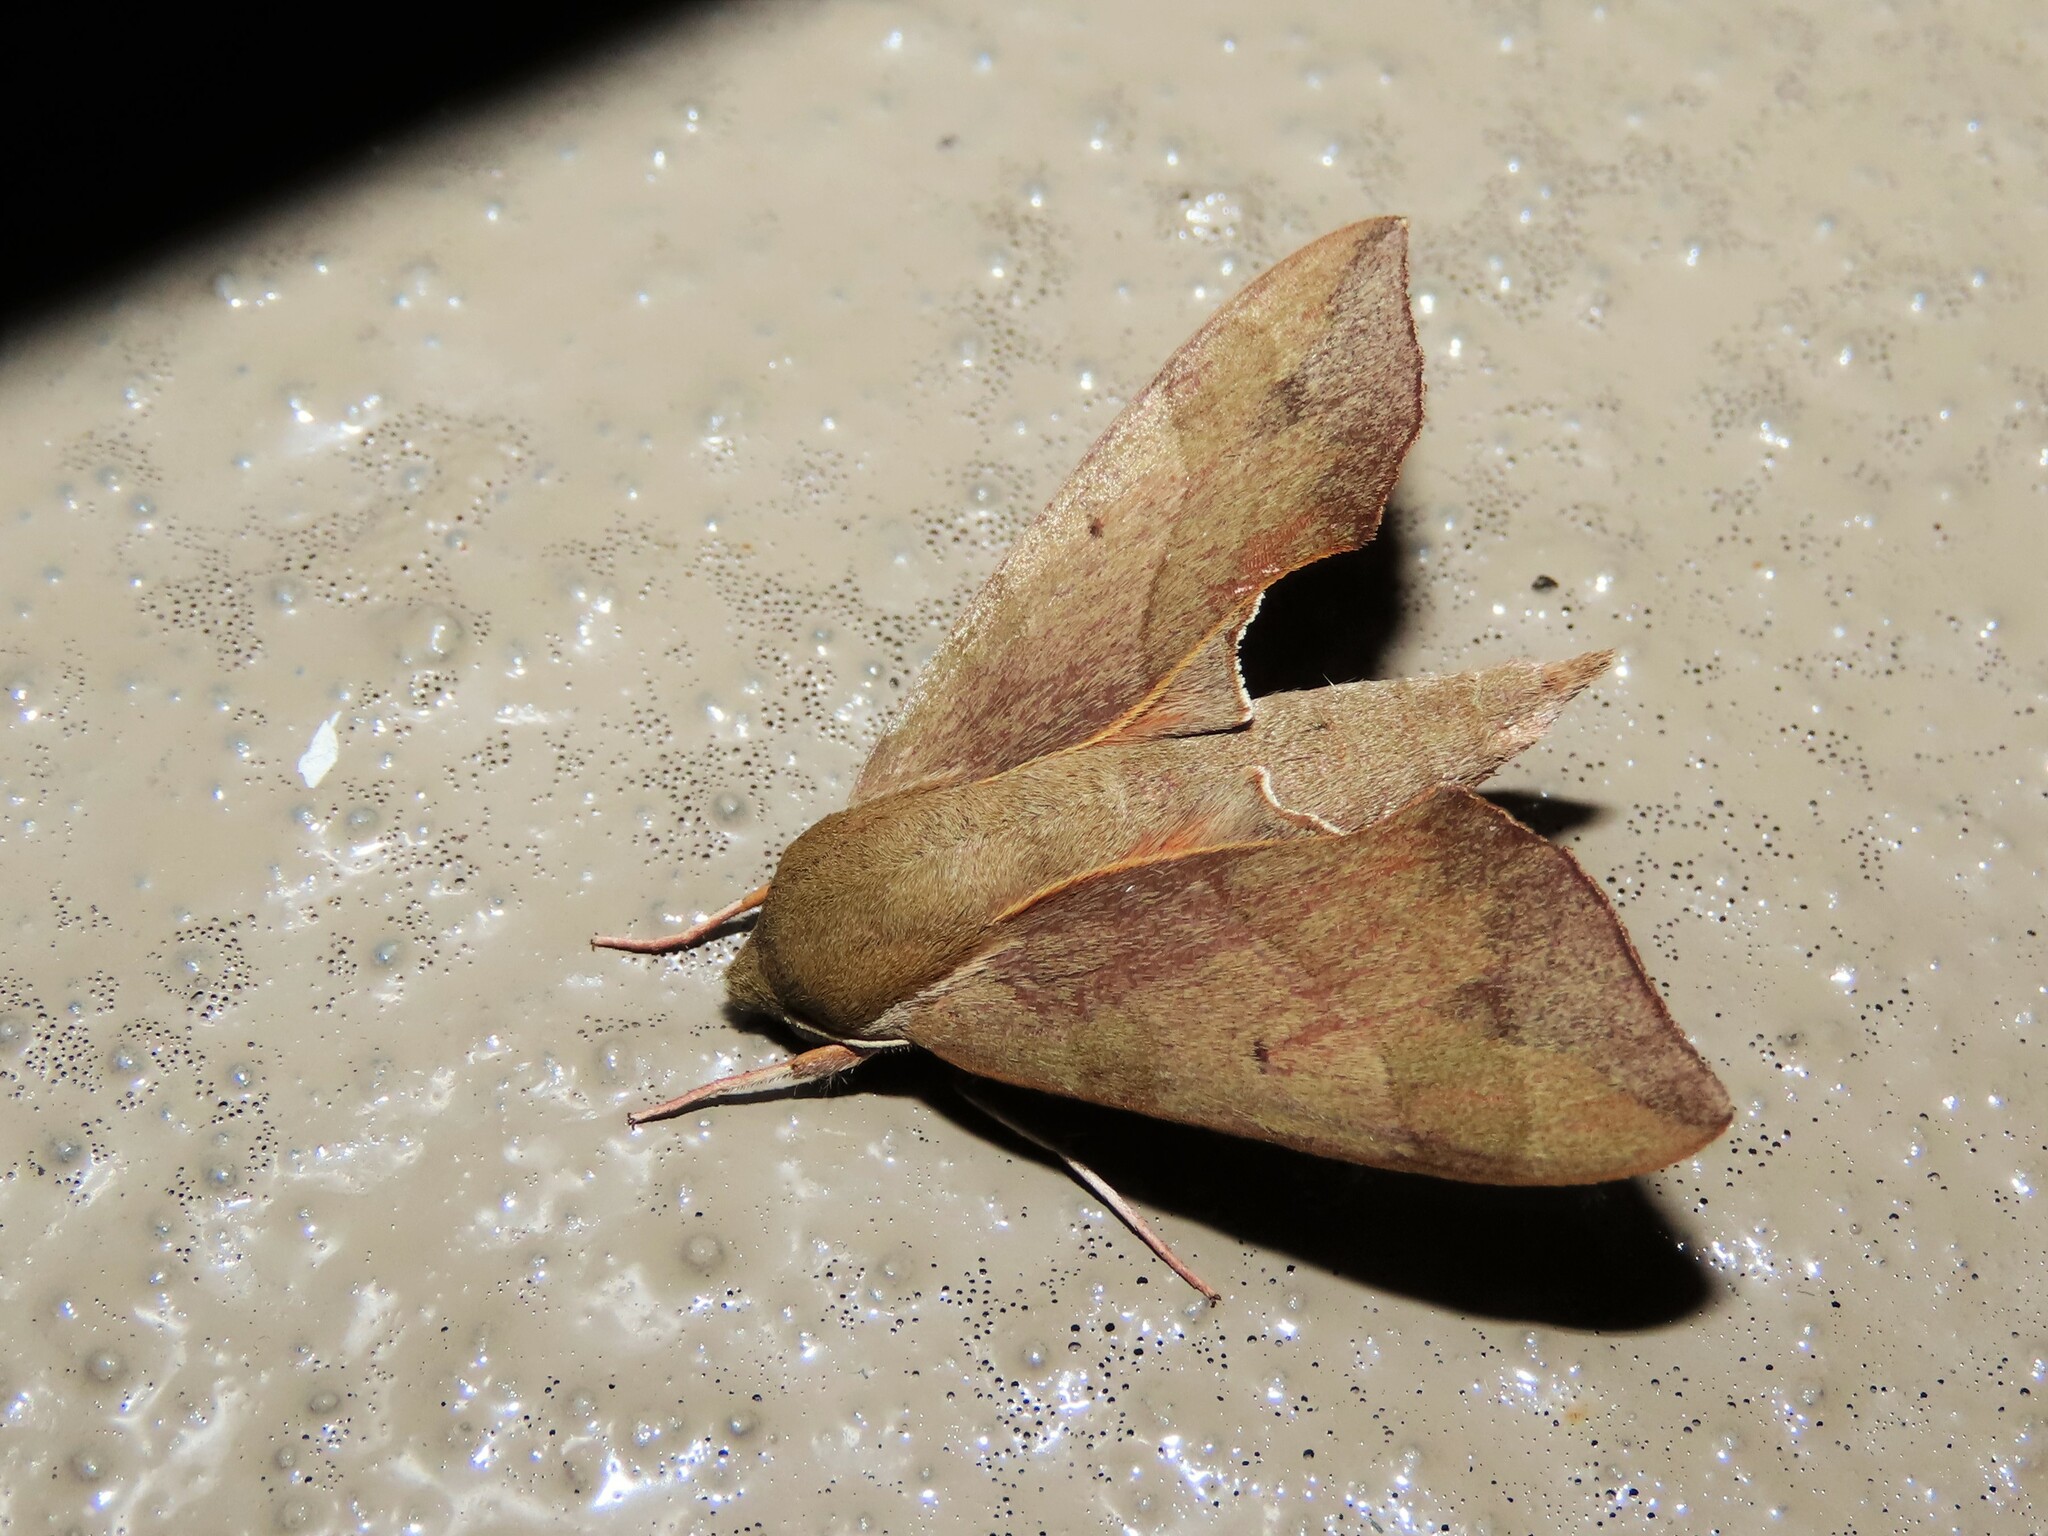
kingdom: Animalia
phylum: Arthropoda
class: Insecta
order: Lepidoptera
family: Sphingidae
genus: Darapsa
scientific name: Darapsa myron
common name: Hog sphinx
